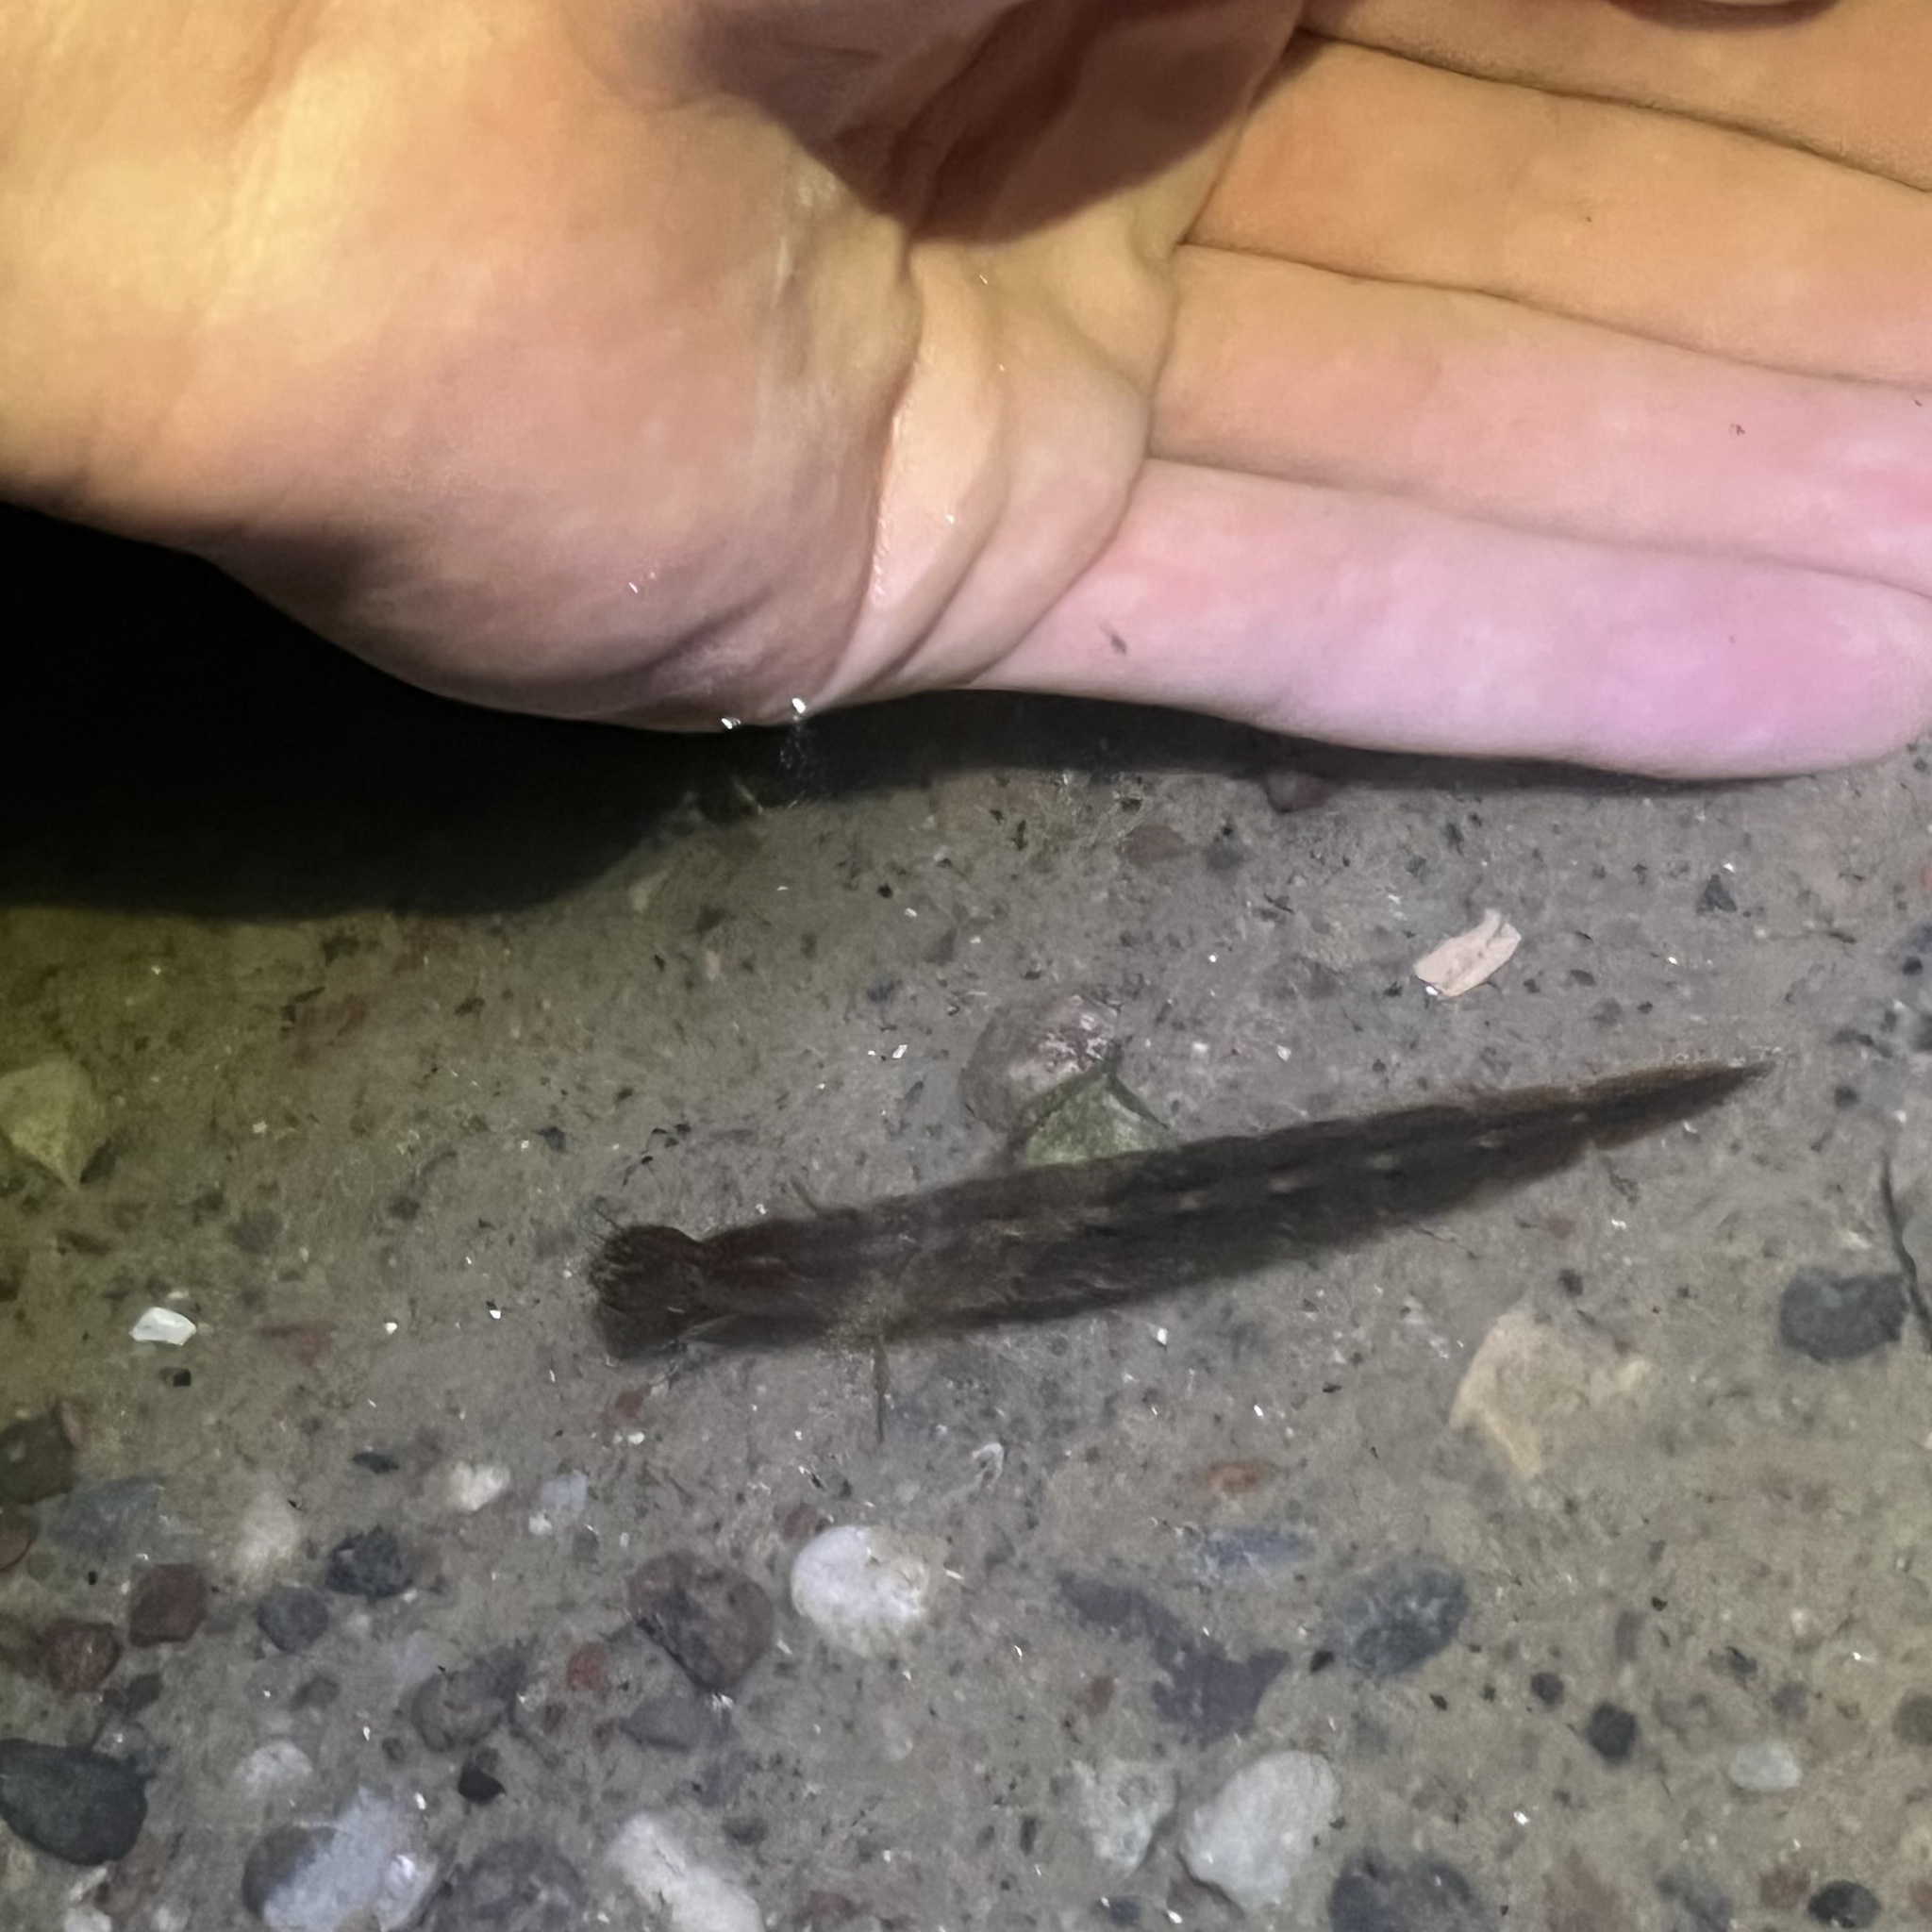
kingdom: Animalia
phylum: Arthropoda
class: Insecta
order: Coleoptera
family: Dytiscidae
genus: Cybister
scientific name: Cybister lateralimarginalis
